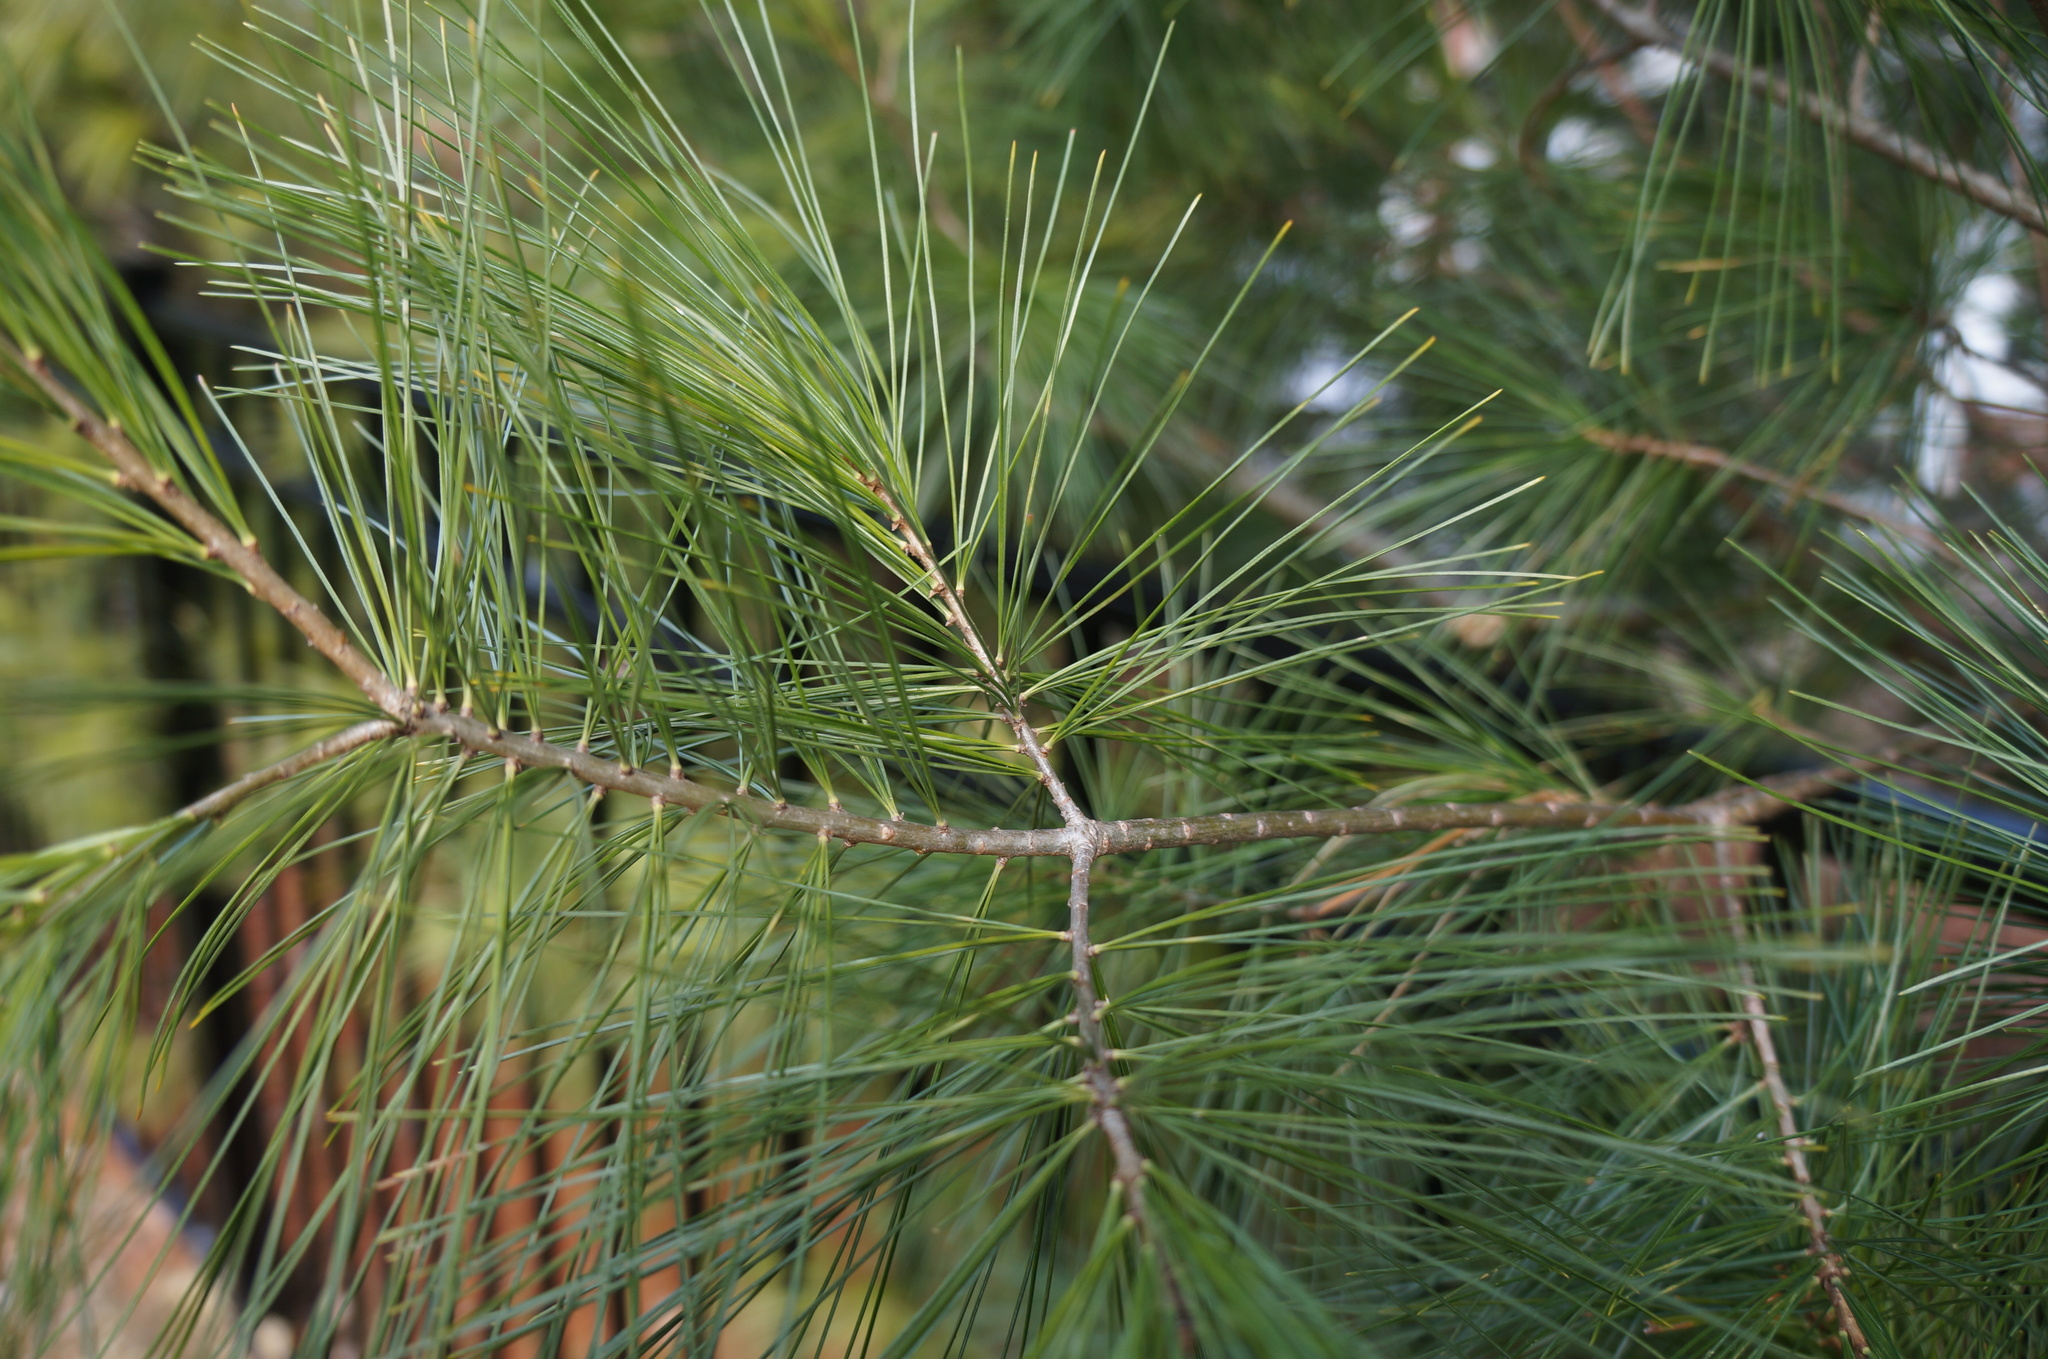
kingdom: Plantae
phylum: Tracheophyta
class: Pinopsida
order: Pinales
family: Pinaceae
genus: Pinus
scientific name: Pinus strobus
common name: Weymouth pine
